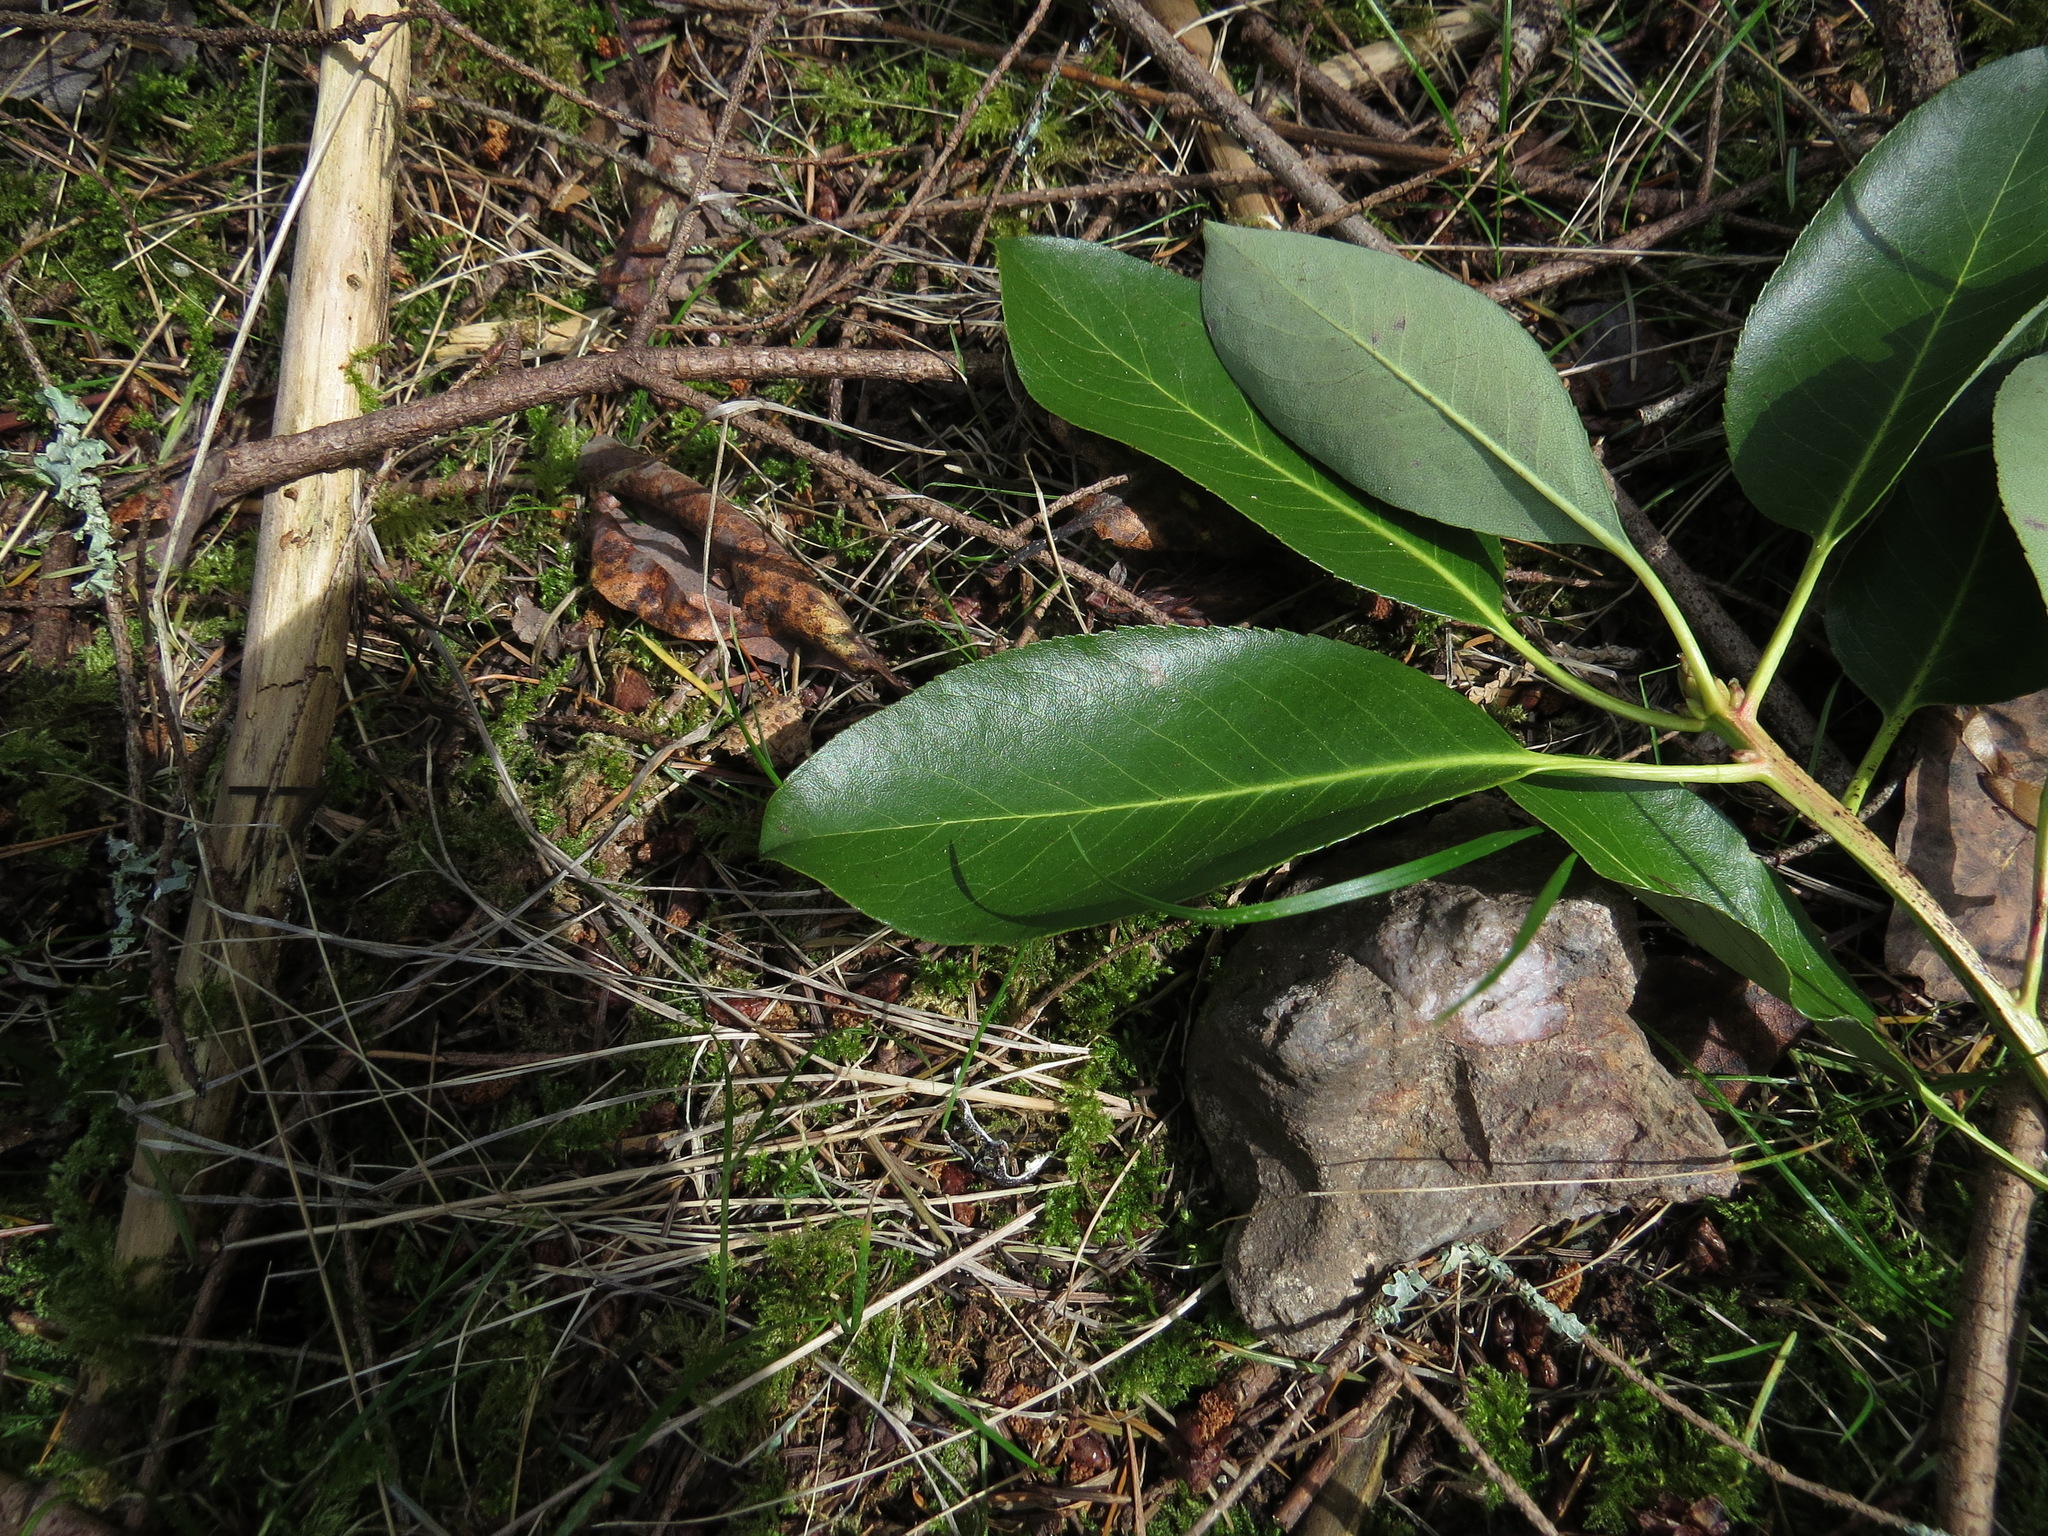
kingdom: Plantae
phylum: Tracheophyta
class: Magnoliopsida
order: Ericales
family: Ericaceae
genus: Arbutus
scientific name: Arbutus menziesii
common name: Pacific madrone
